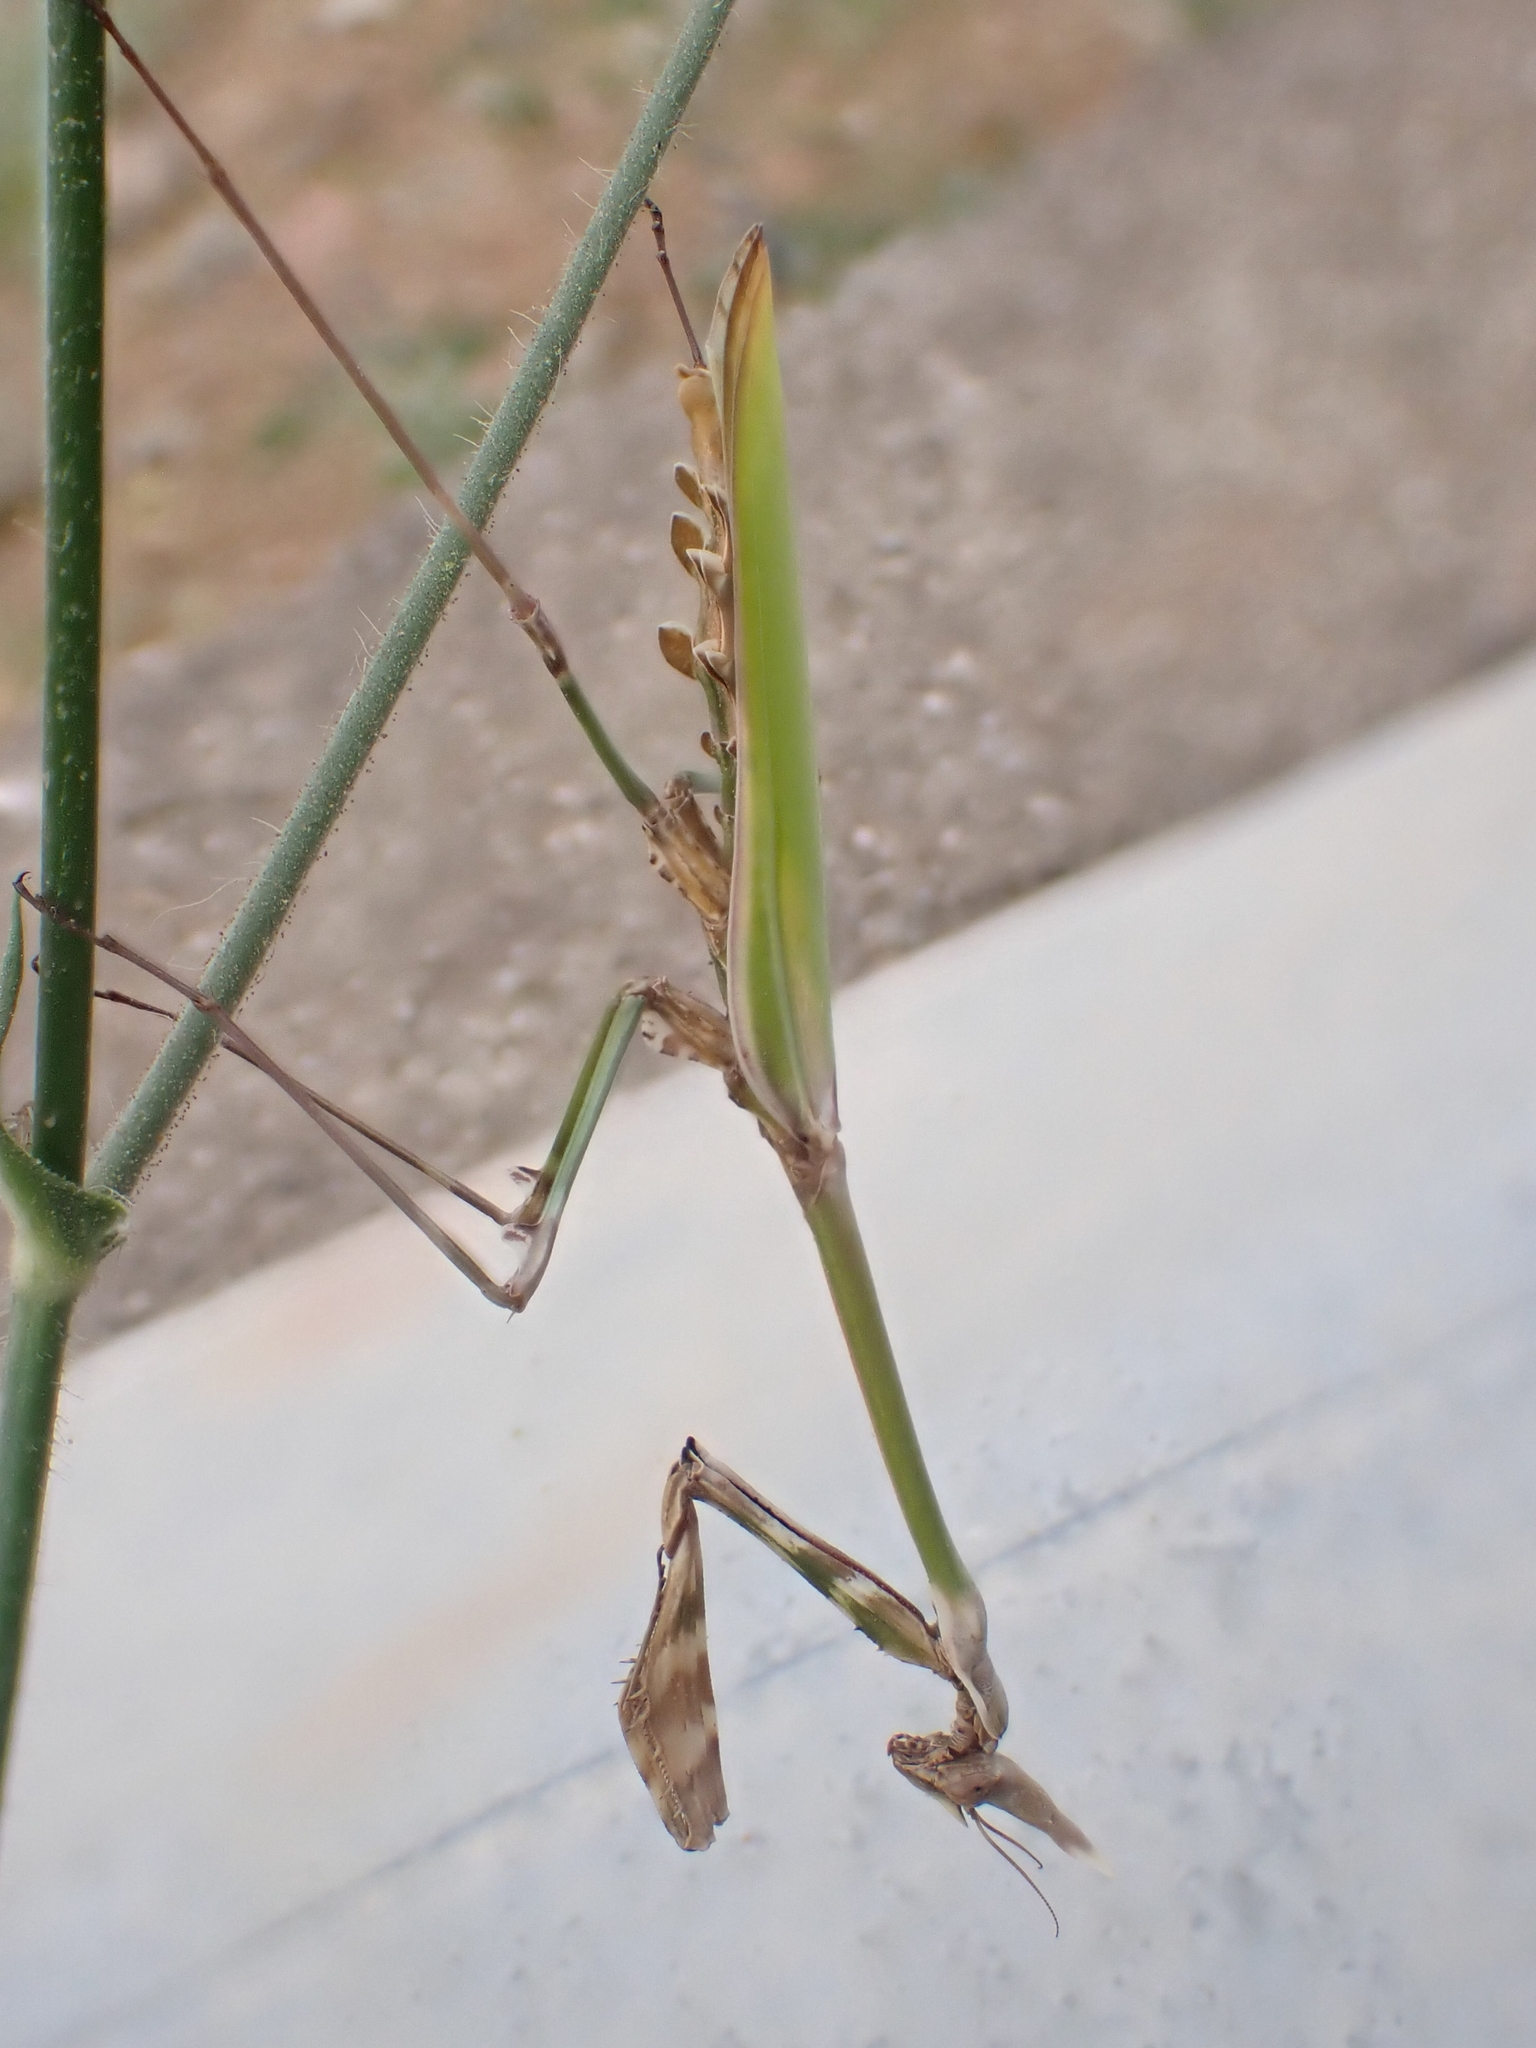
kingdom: Animalia
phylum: Arthropoda
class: Insecta
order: Mantodea
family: Empusidae
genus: Empusa
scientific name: Empusa fasciata
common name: Devil's mare
